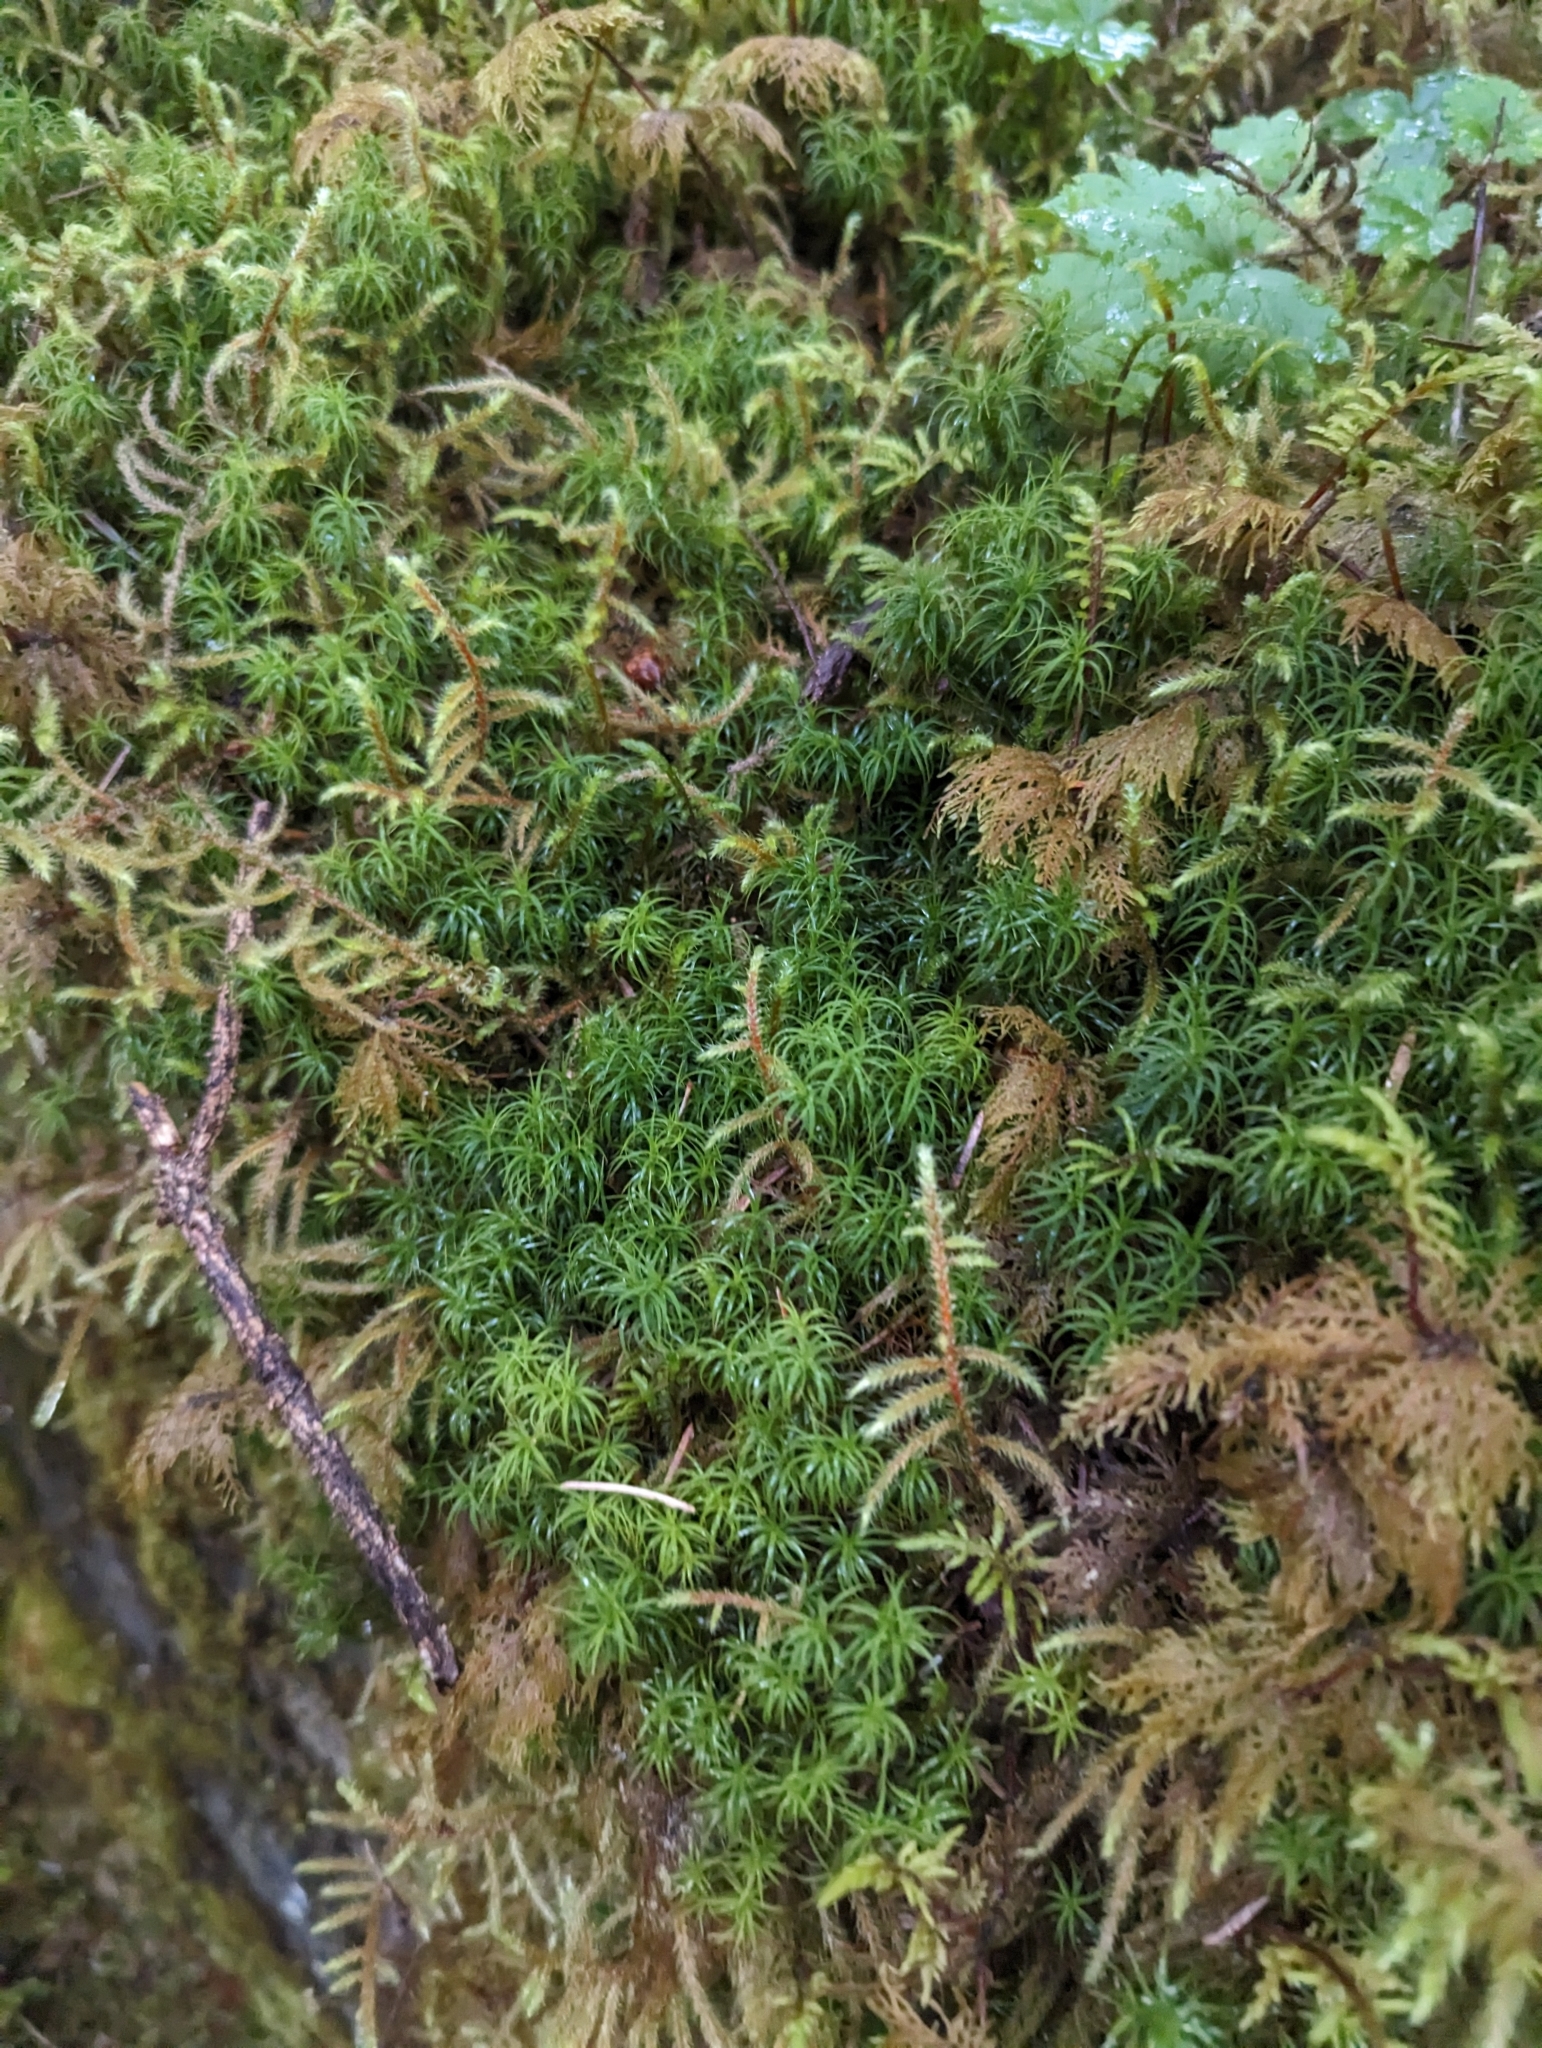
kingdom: Plantae
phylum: Bryophyta
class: Polytrichopsida
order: Polytrichales
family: Polytrichaceae
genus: Polytrichastrum
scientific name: Polytrichastrum alpinum
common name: Alpine haircap
